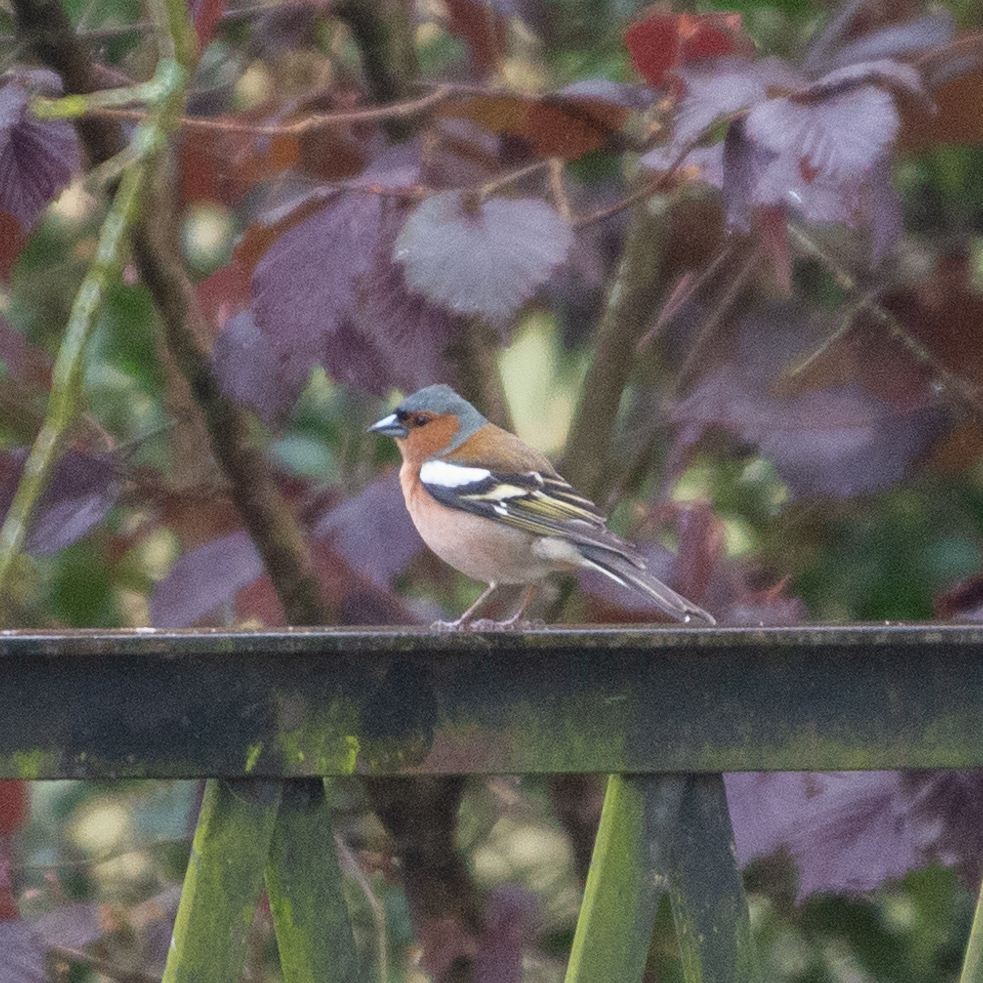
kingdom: Animalia
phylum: Chordata
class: Aves
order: Passeriformes
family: Fringillidae
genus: Fringilla
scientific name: Fringilla coelebs
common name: Common chaffinch
